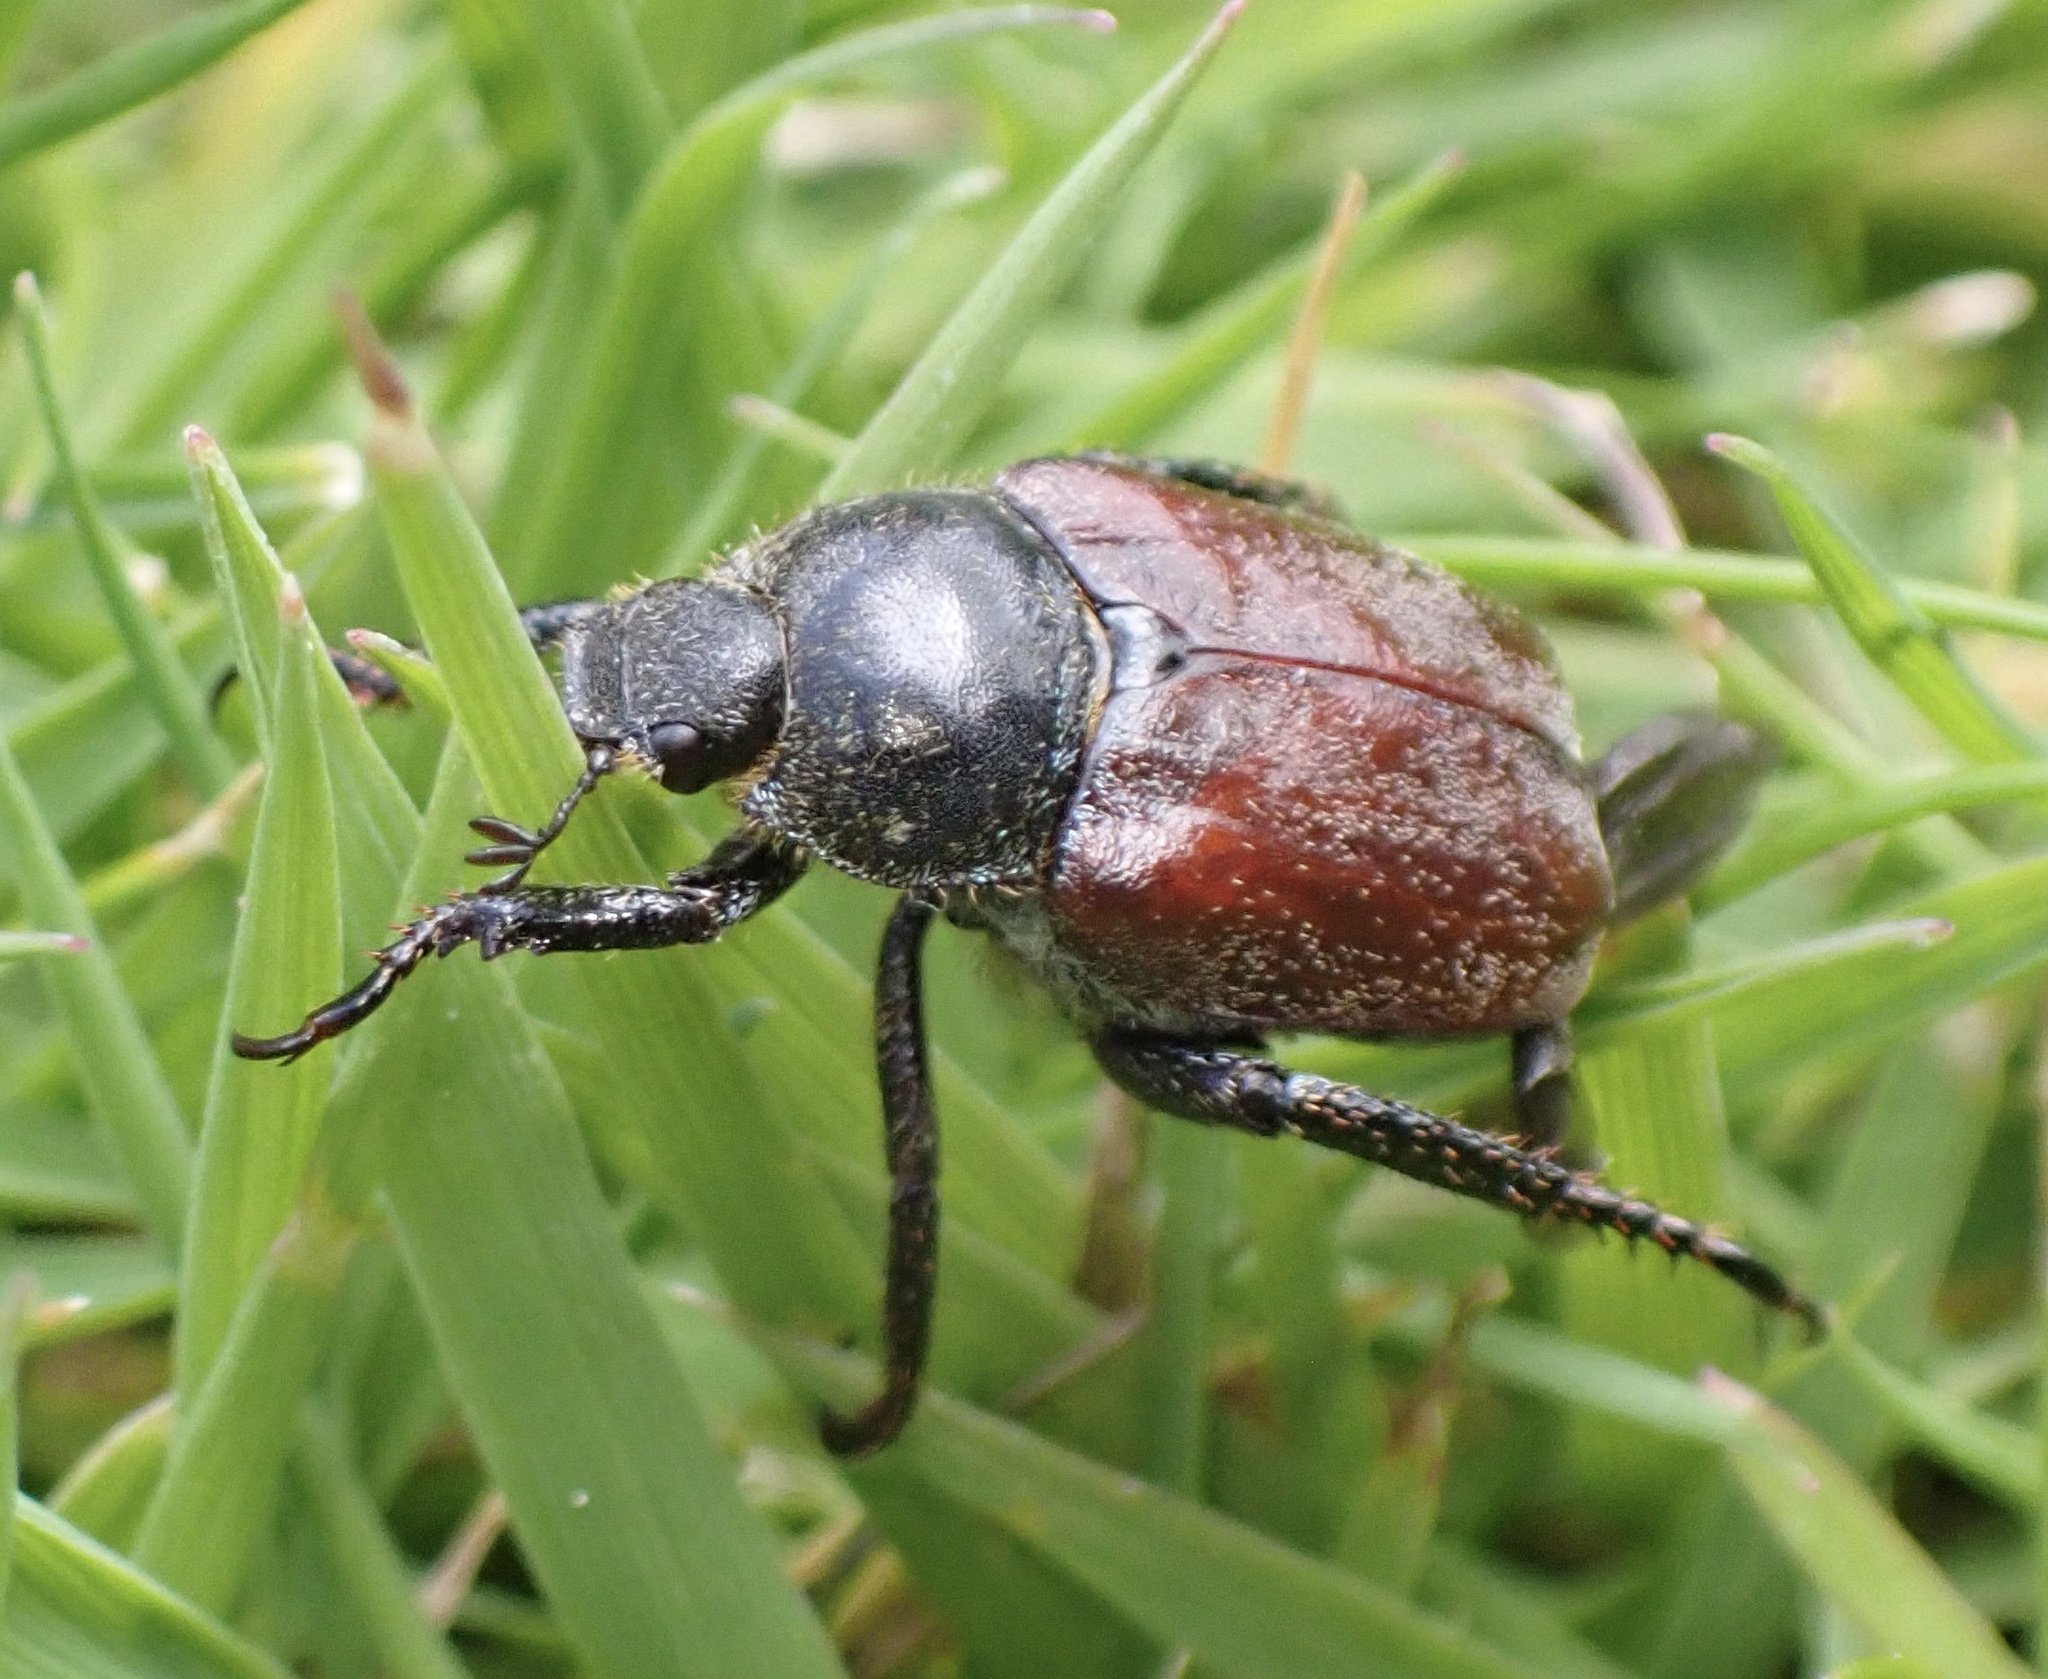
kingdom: Animalia
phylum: Arthropoda
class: Insecta
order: Coleoptera
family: Scarabaeidae
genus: Hoplia
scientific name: Hoplia philanthus
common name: Welsh chafer
